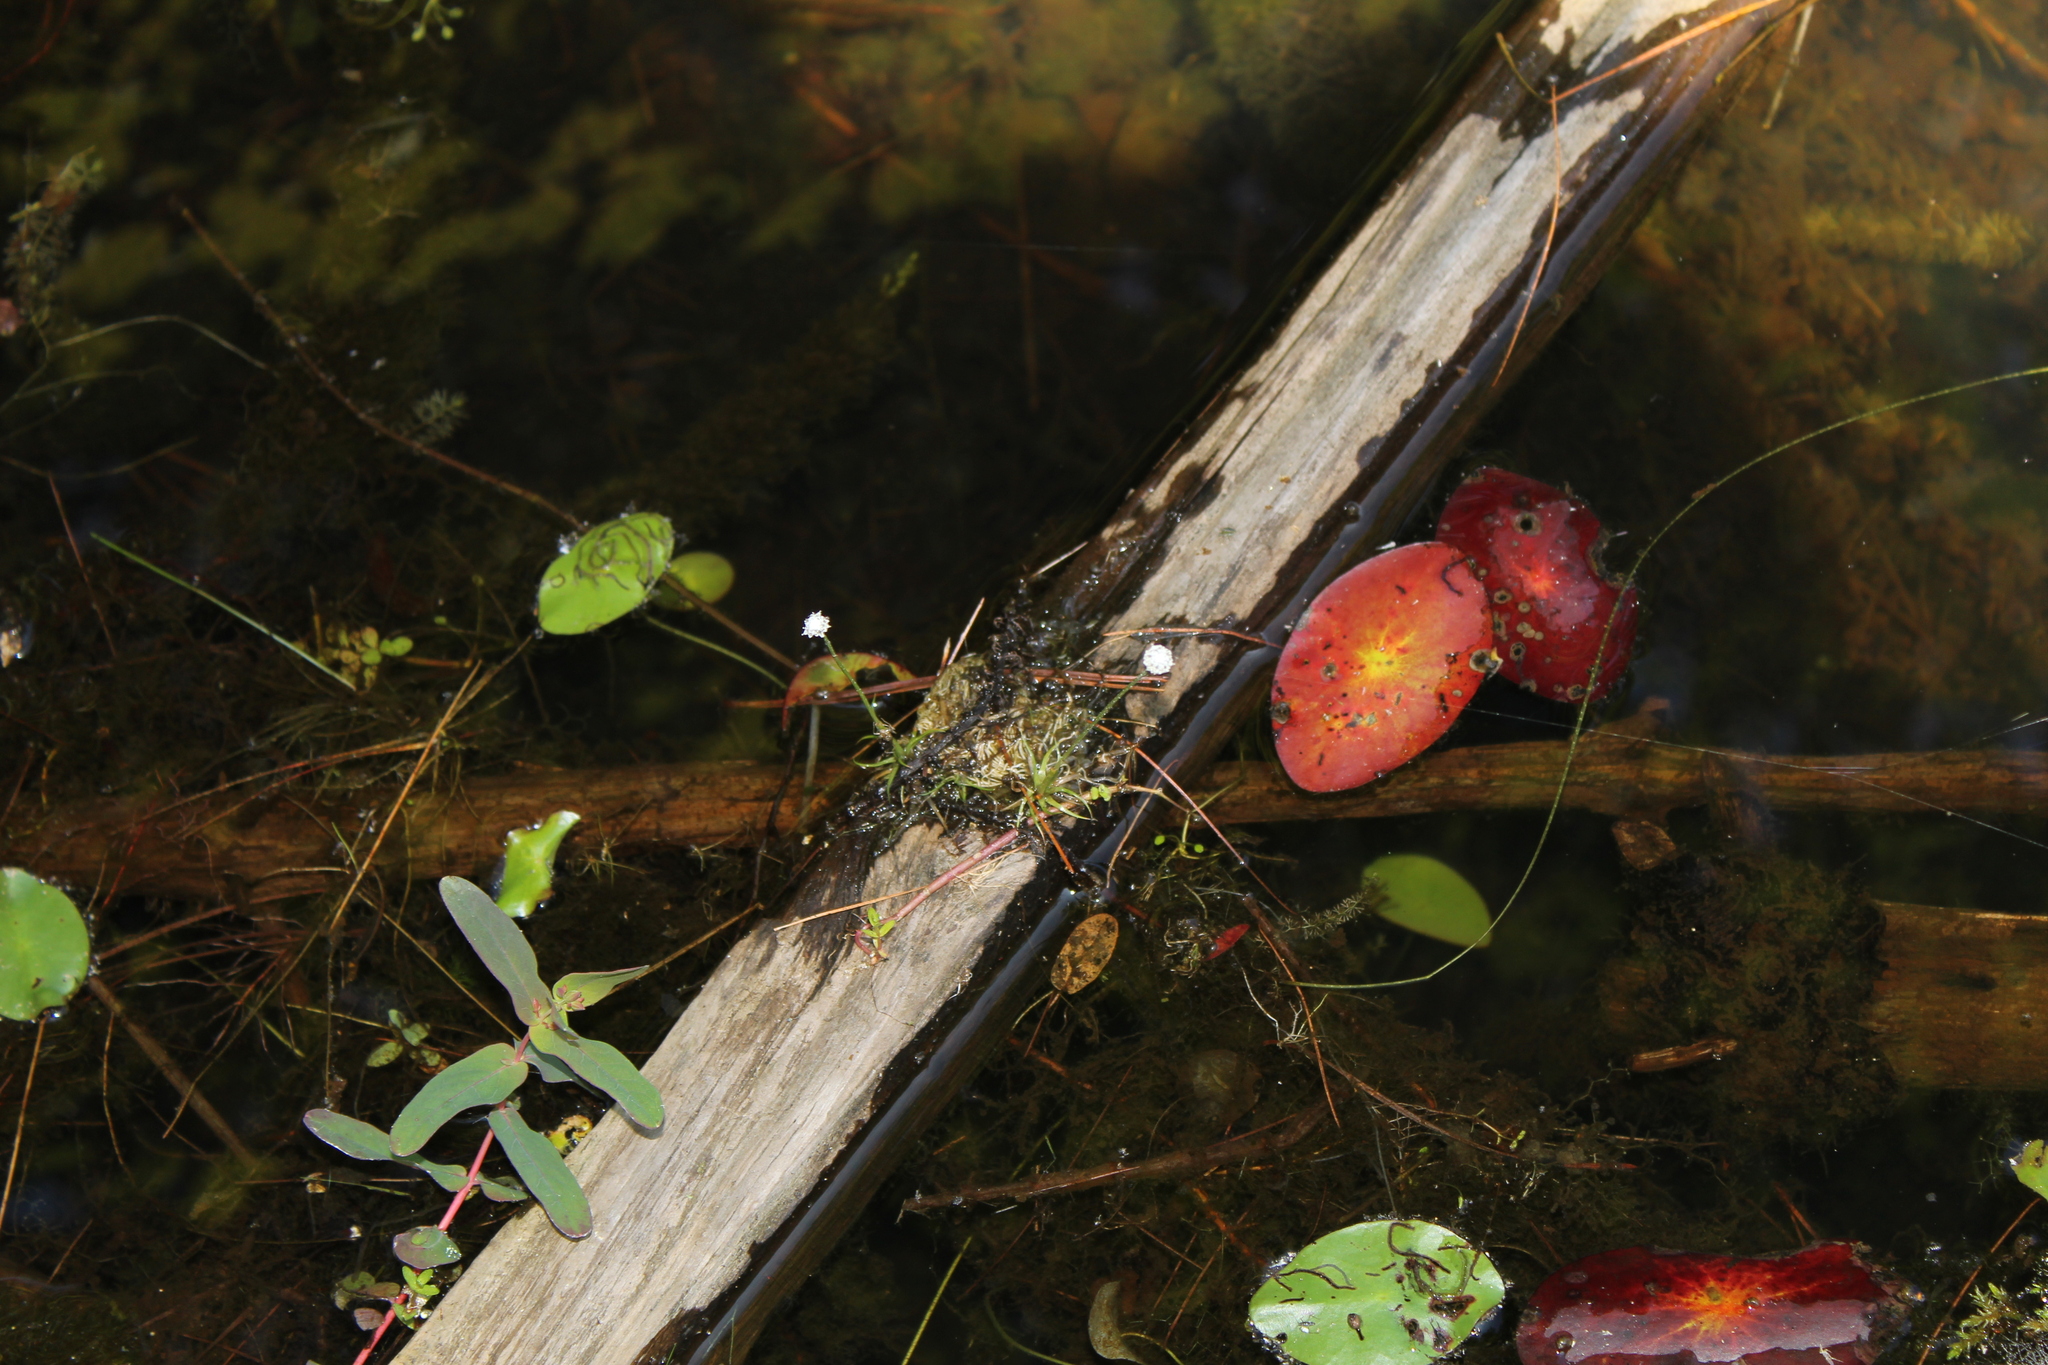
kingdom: Plantae
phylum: Tracheophyta
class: Liliopsida
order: Poales
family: Eriocaulaceae
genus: Eriocaulon
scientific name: Eriocaulon aquaticum
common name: Pipewort
